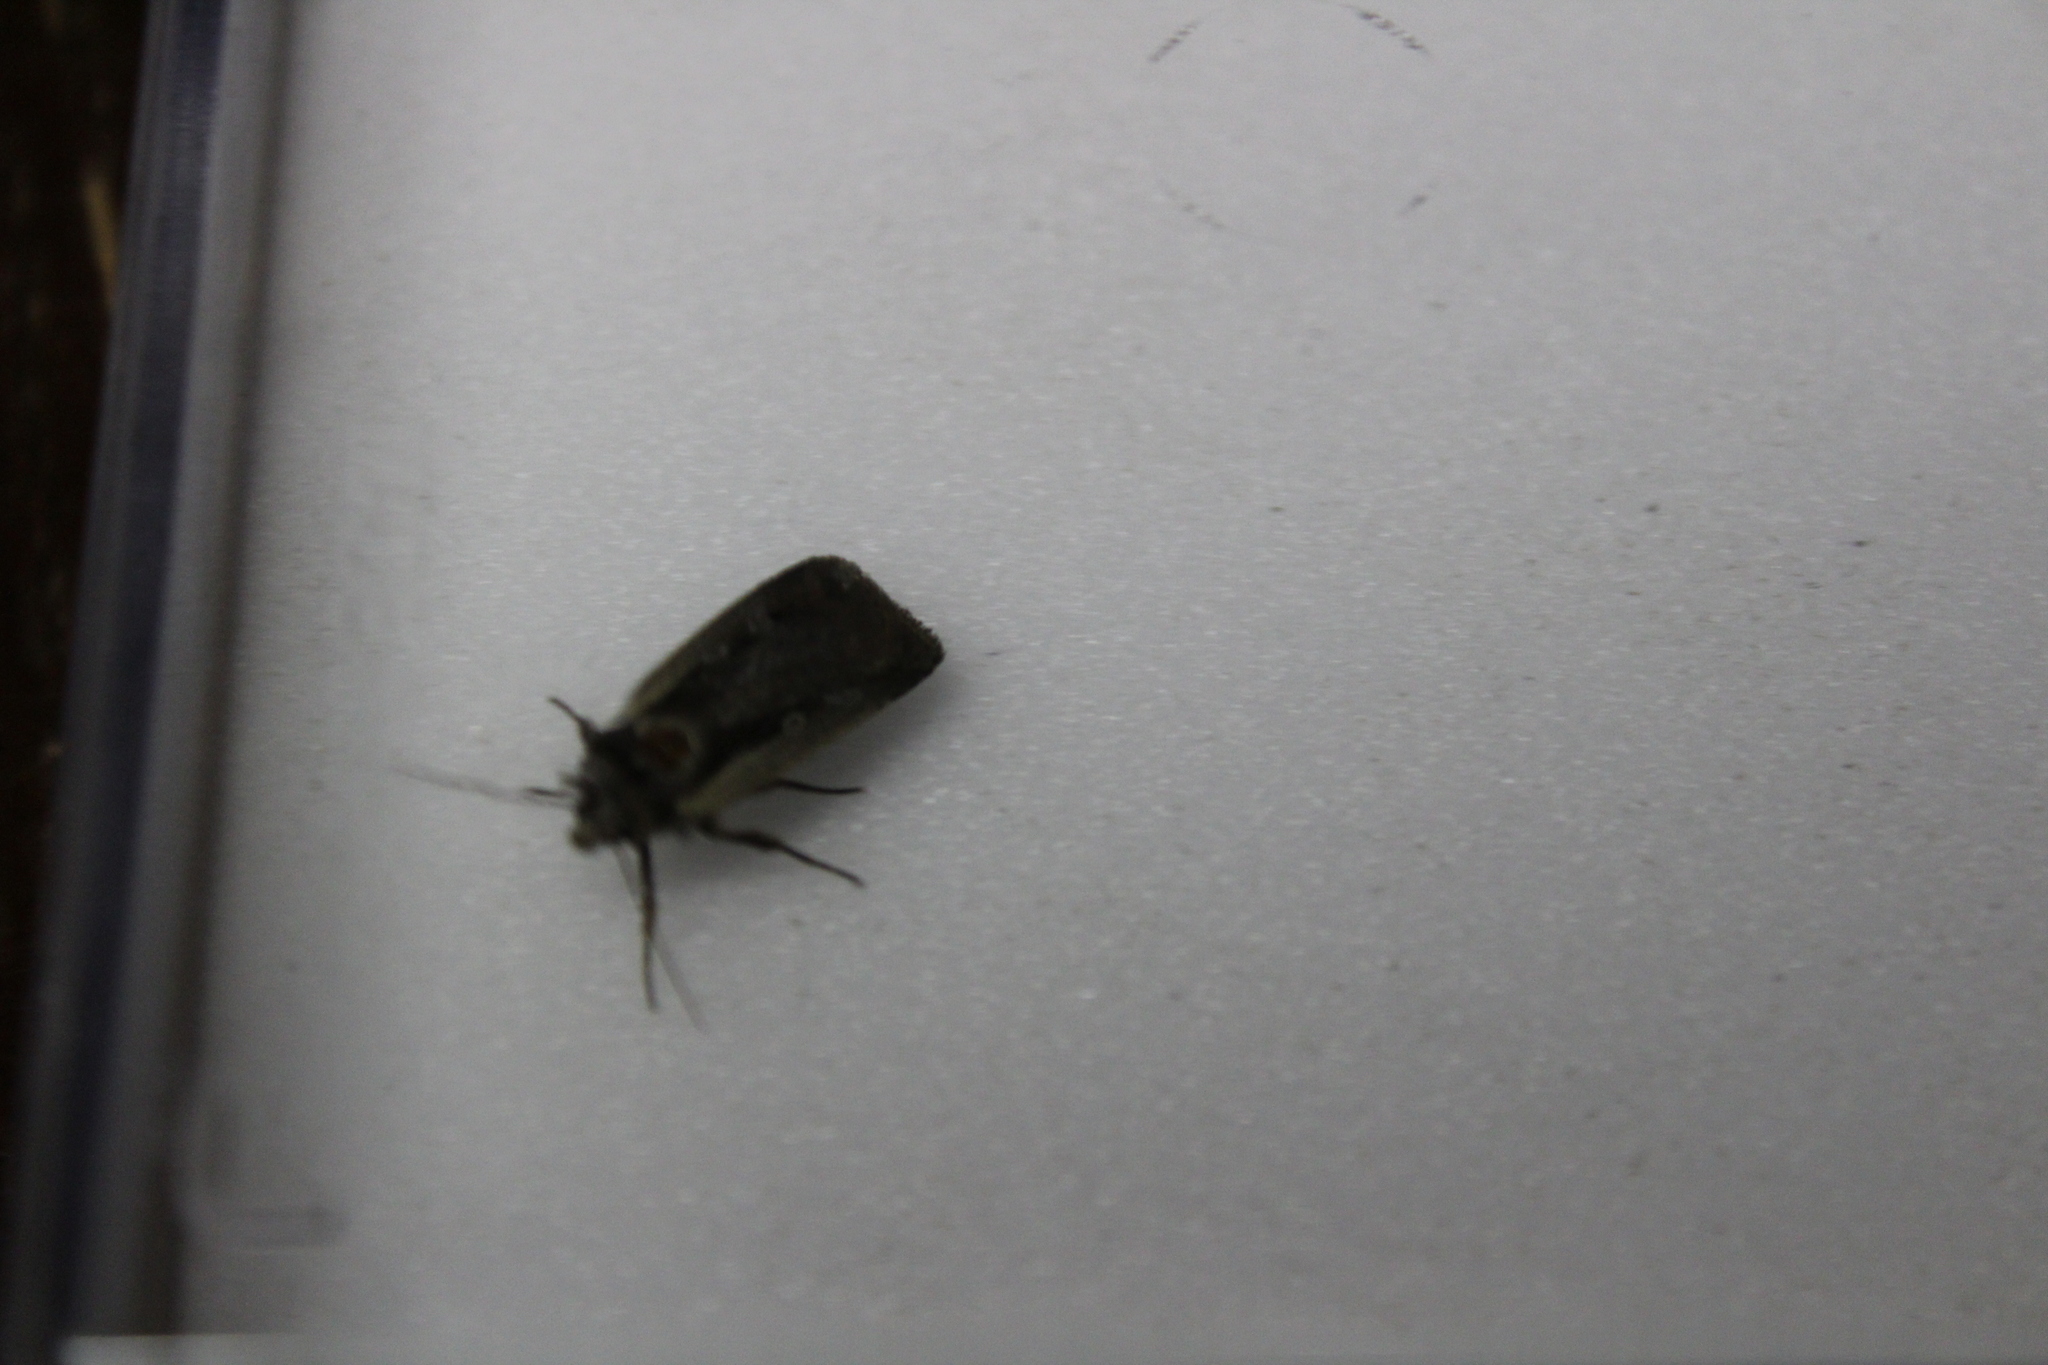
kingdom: Animalia
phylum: Arthropoda
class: Insecta
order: Lepidoptera
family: Noctuidae
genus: Ochropleura
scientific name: Ochropleura plecta
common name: Flame shoulder
